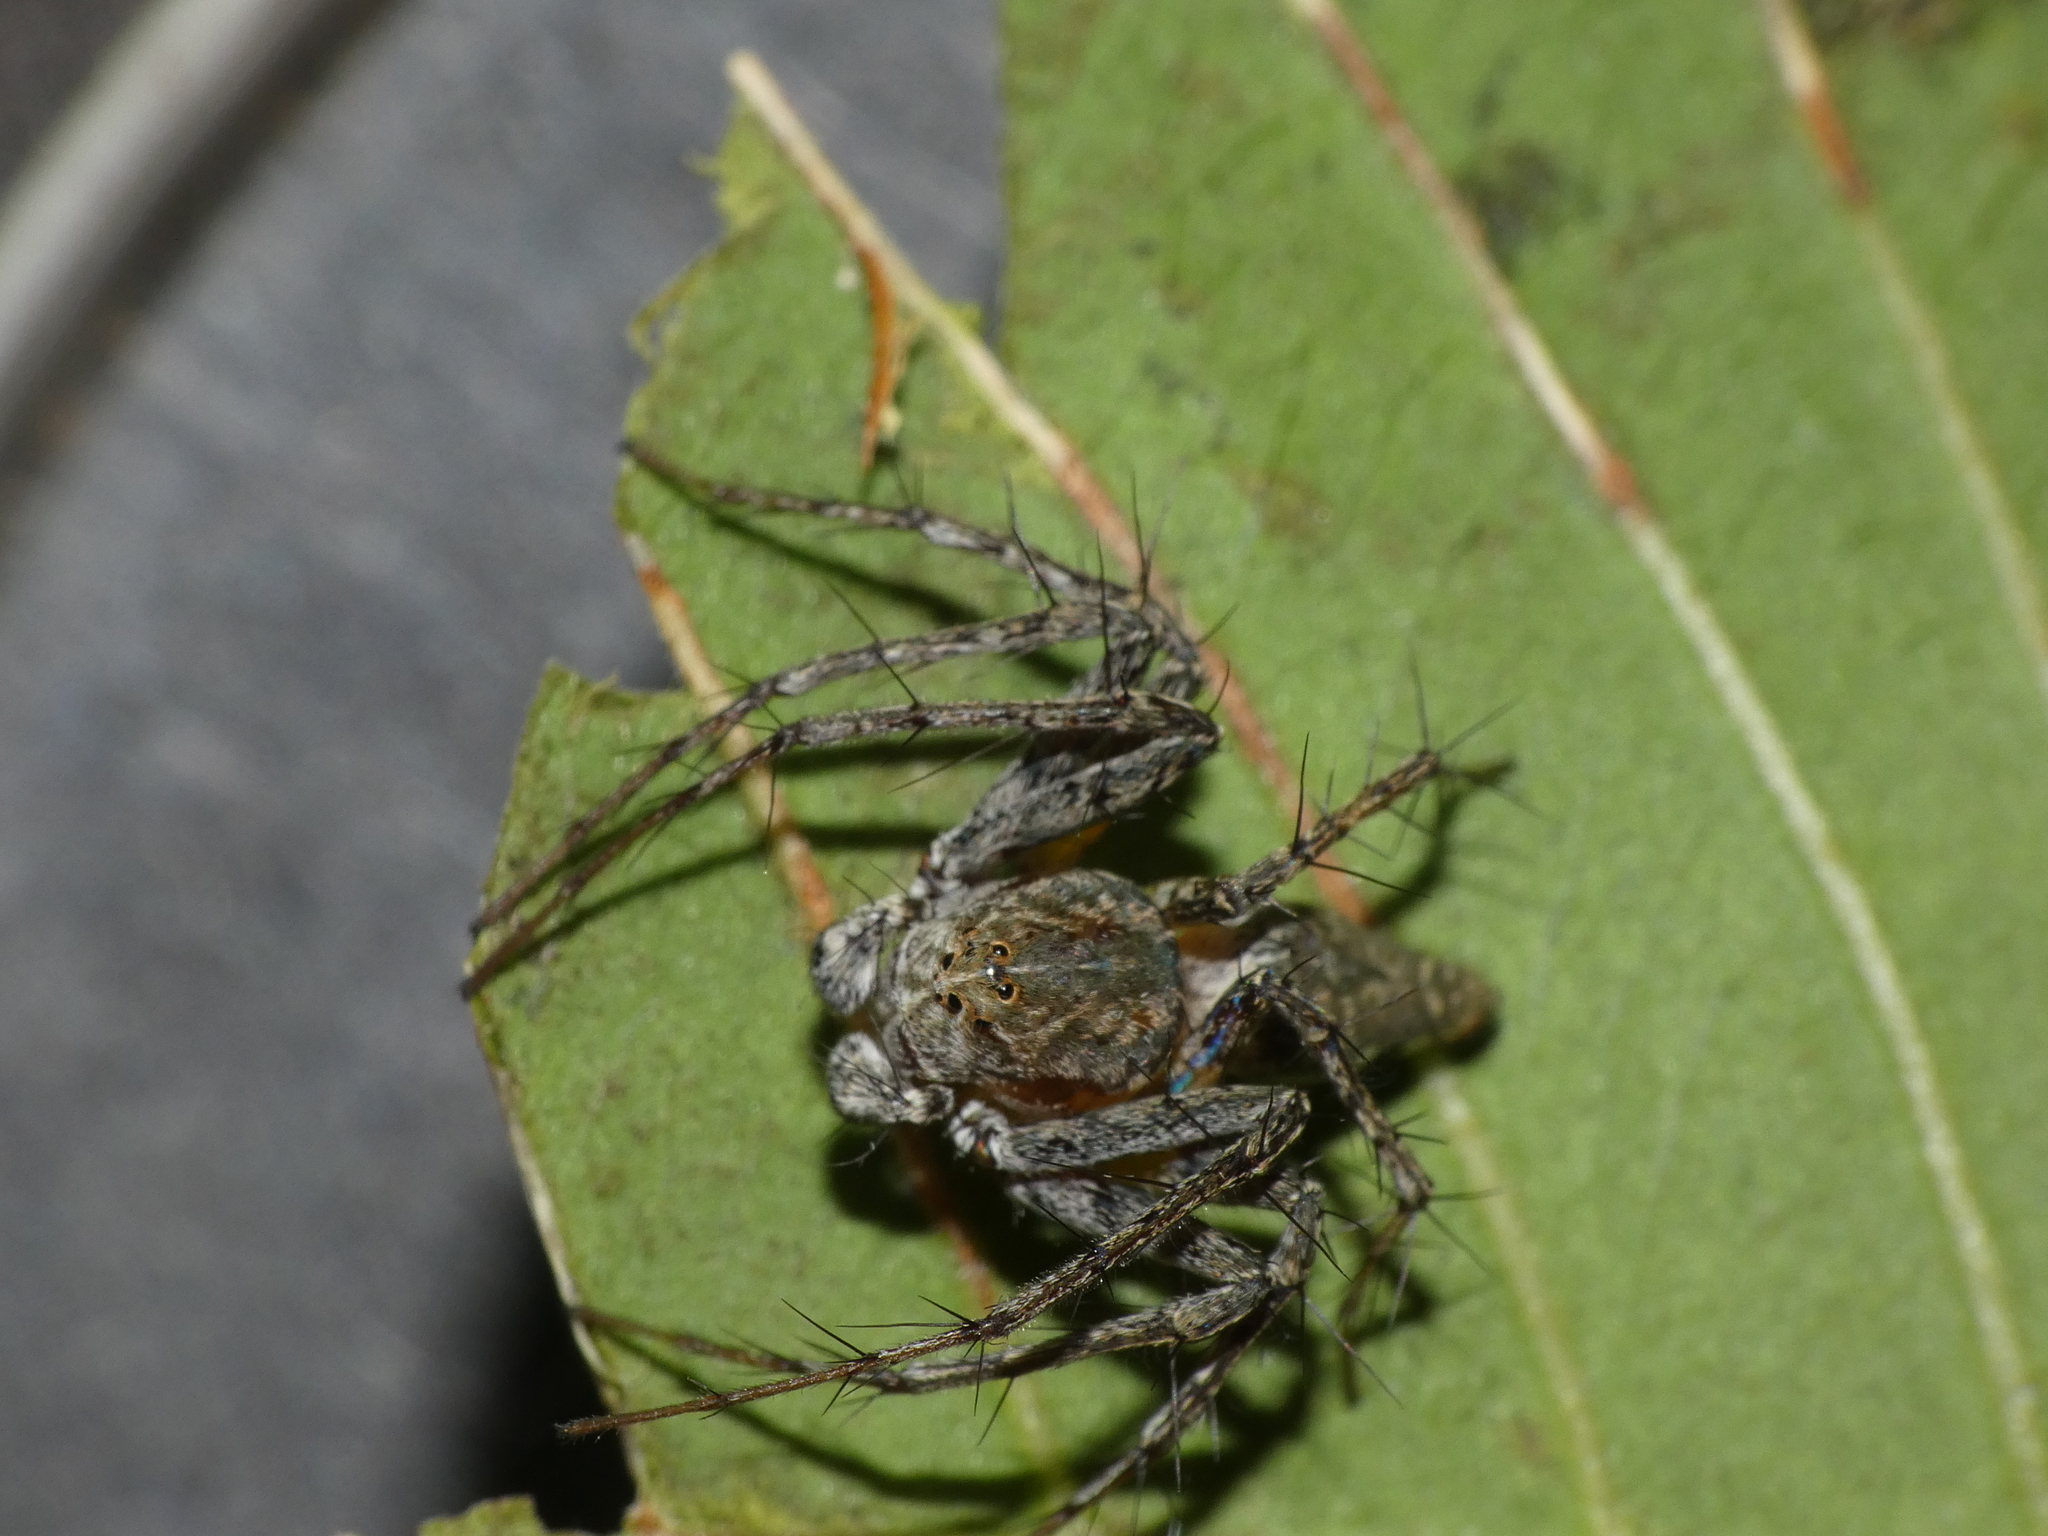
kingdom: Animalia
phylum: Arthropoda
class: Arachnida
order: Araneae
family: Oxyopidae
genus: Oxyopes
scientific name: Oxyopes schenkeli
